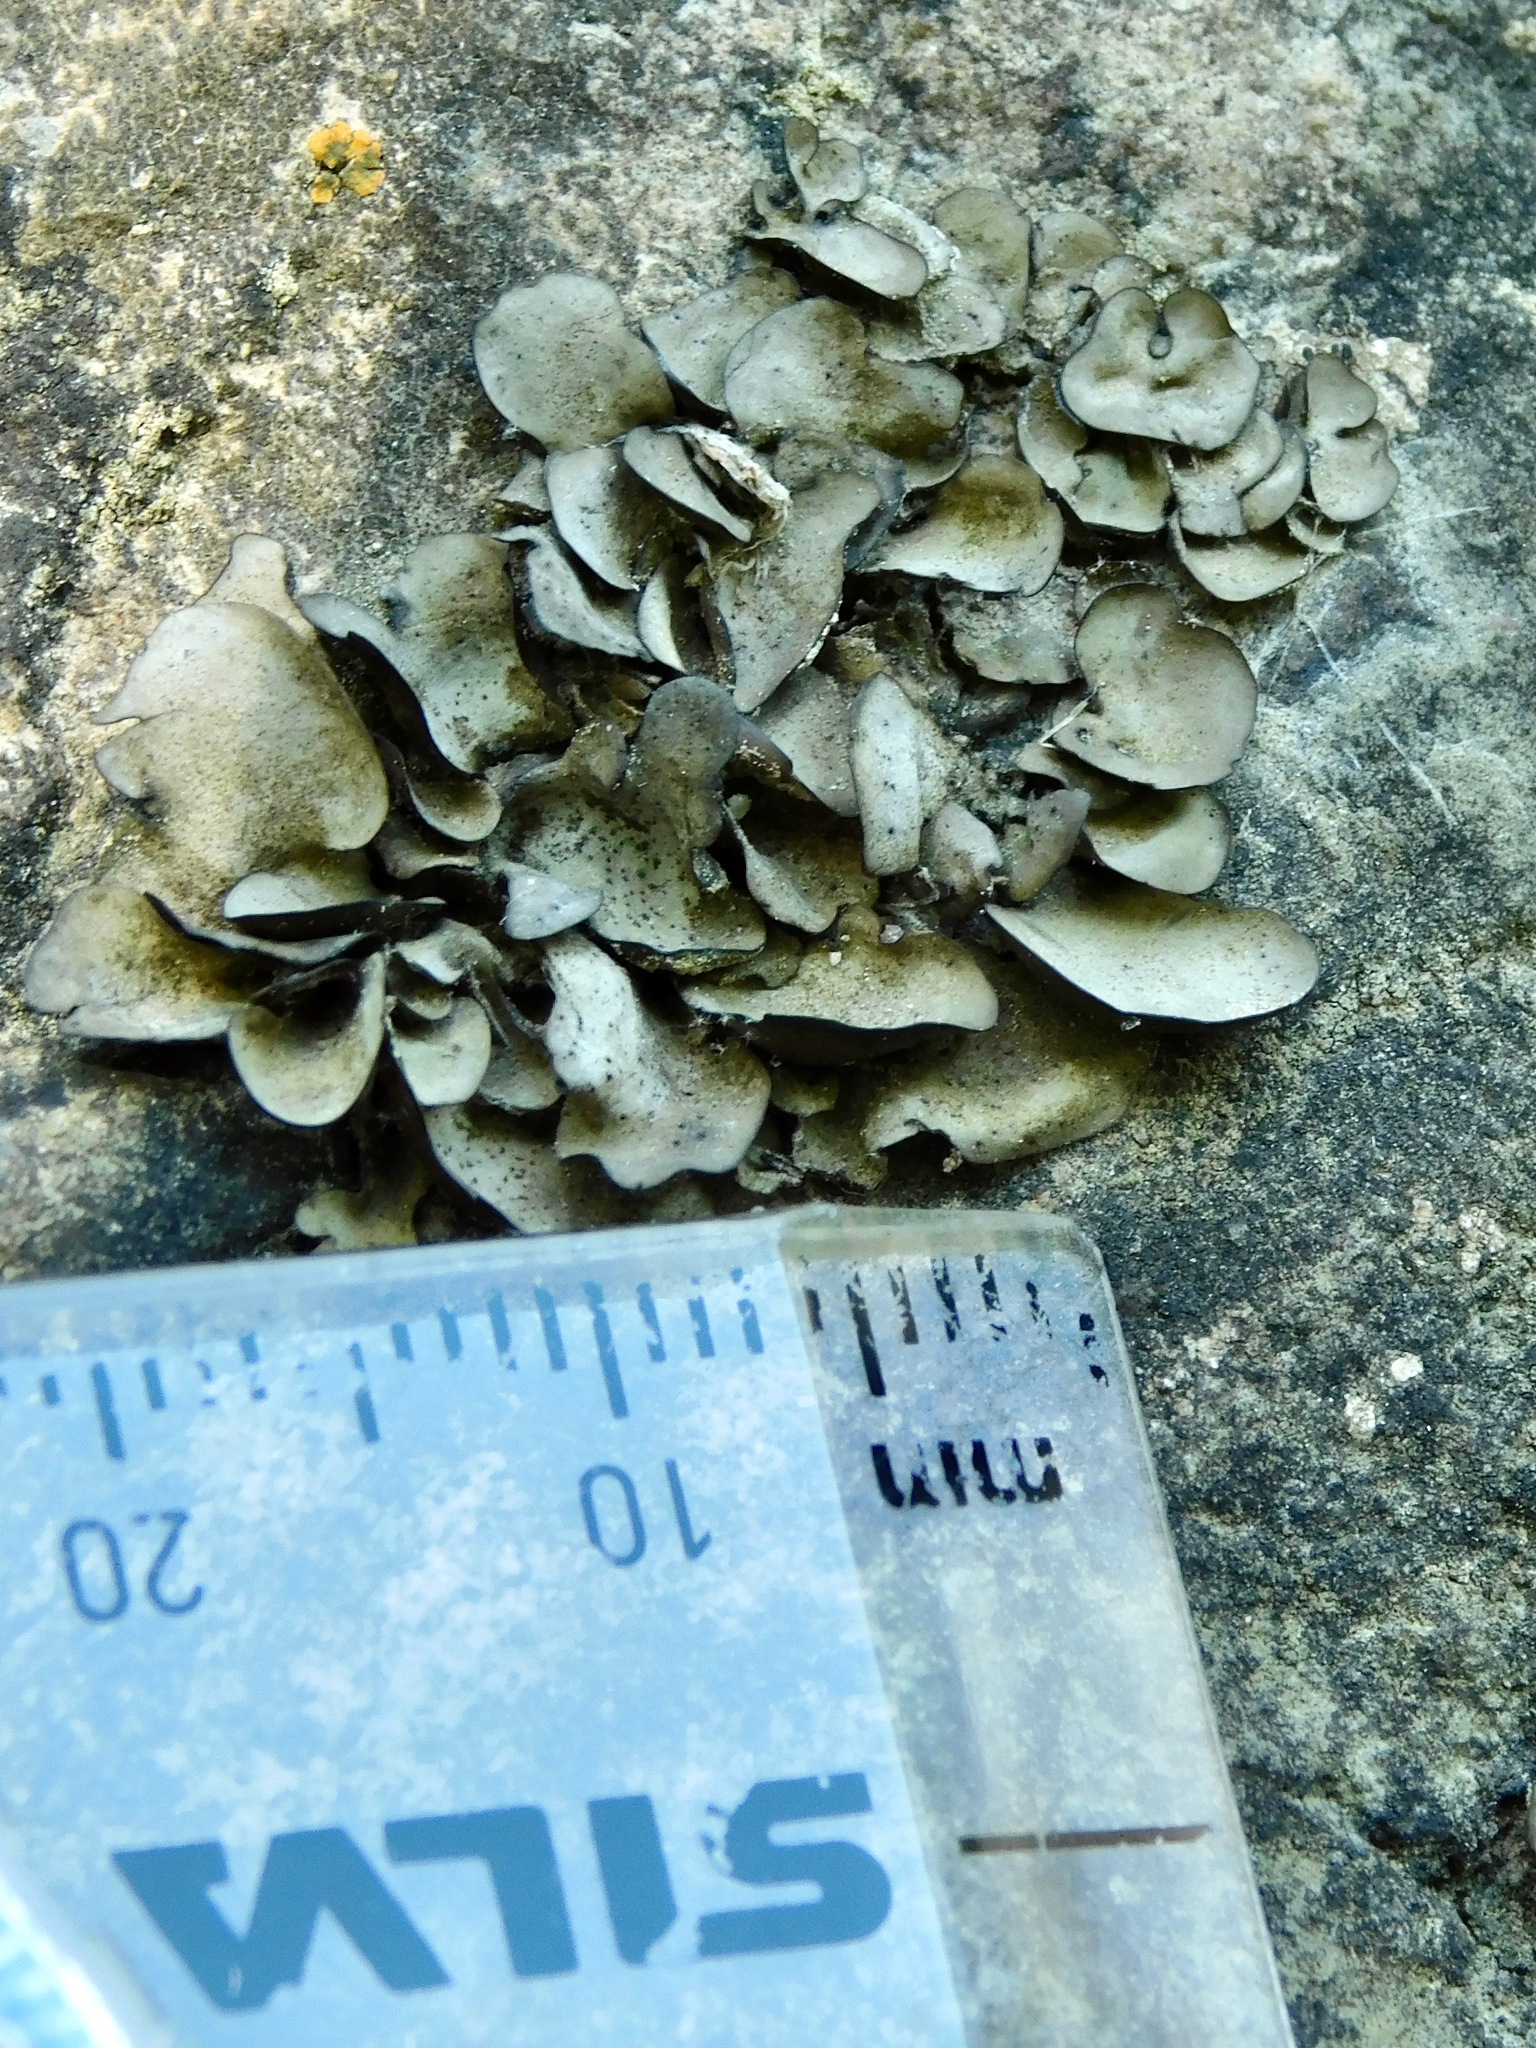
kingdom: Fungi
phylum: Ascomycota
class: Eurotiomycetes
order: Verrucariales
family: Verrucariaceae
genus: Dermatocarpon
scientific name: Dermatocarpon arenosaxi
